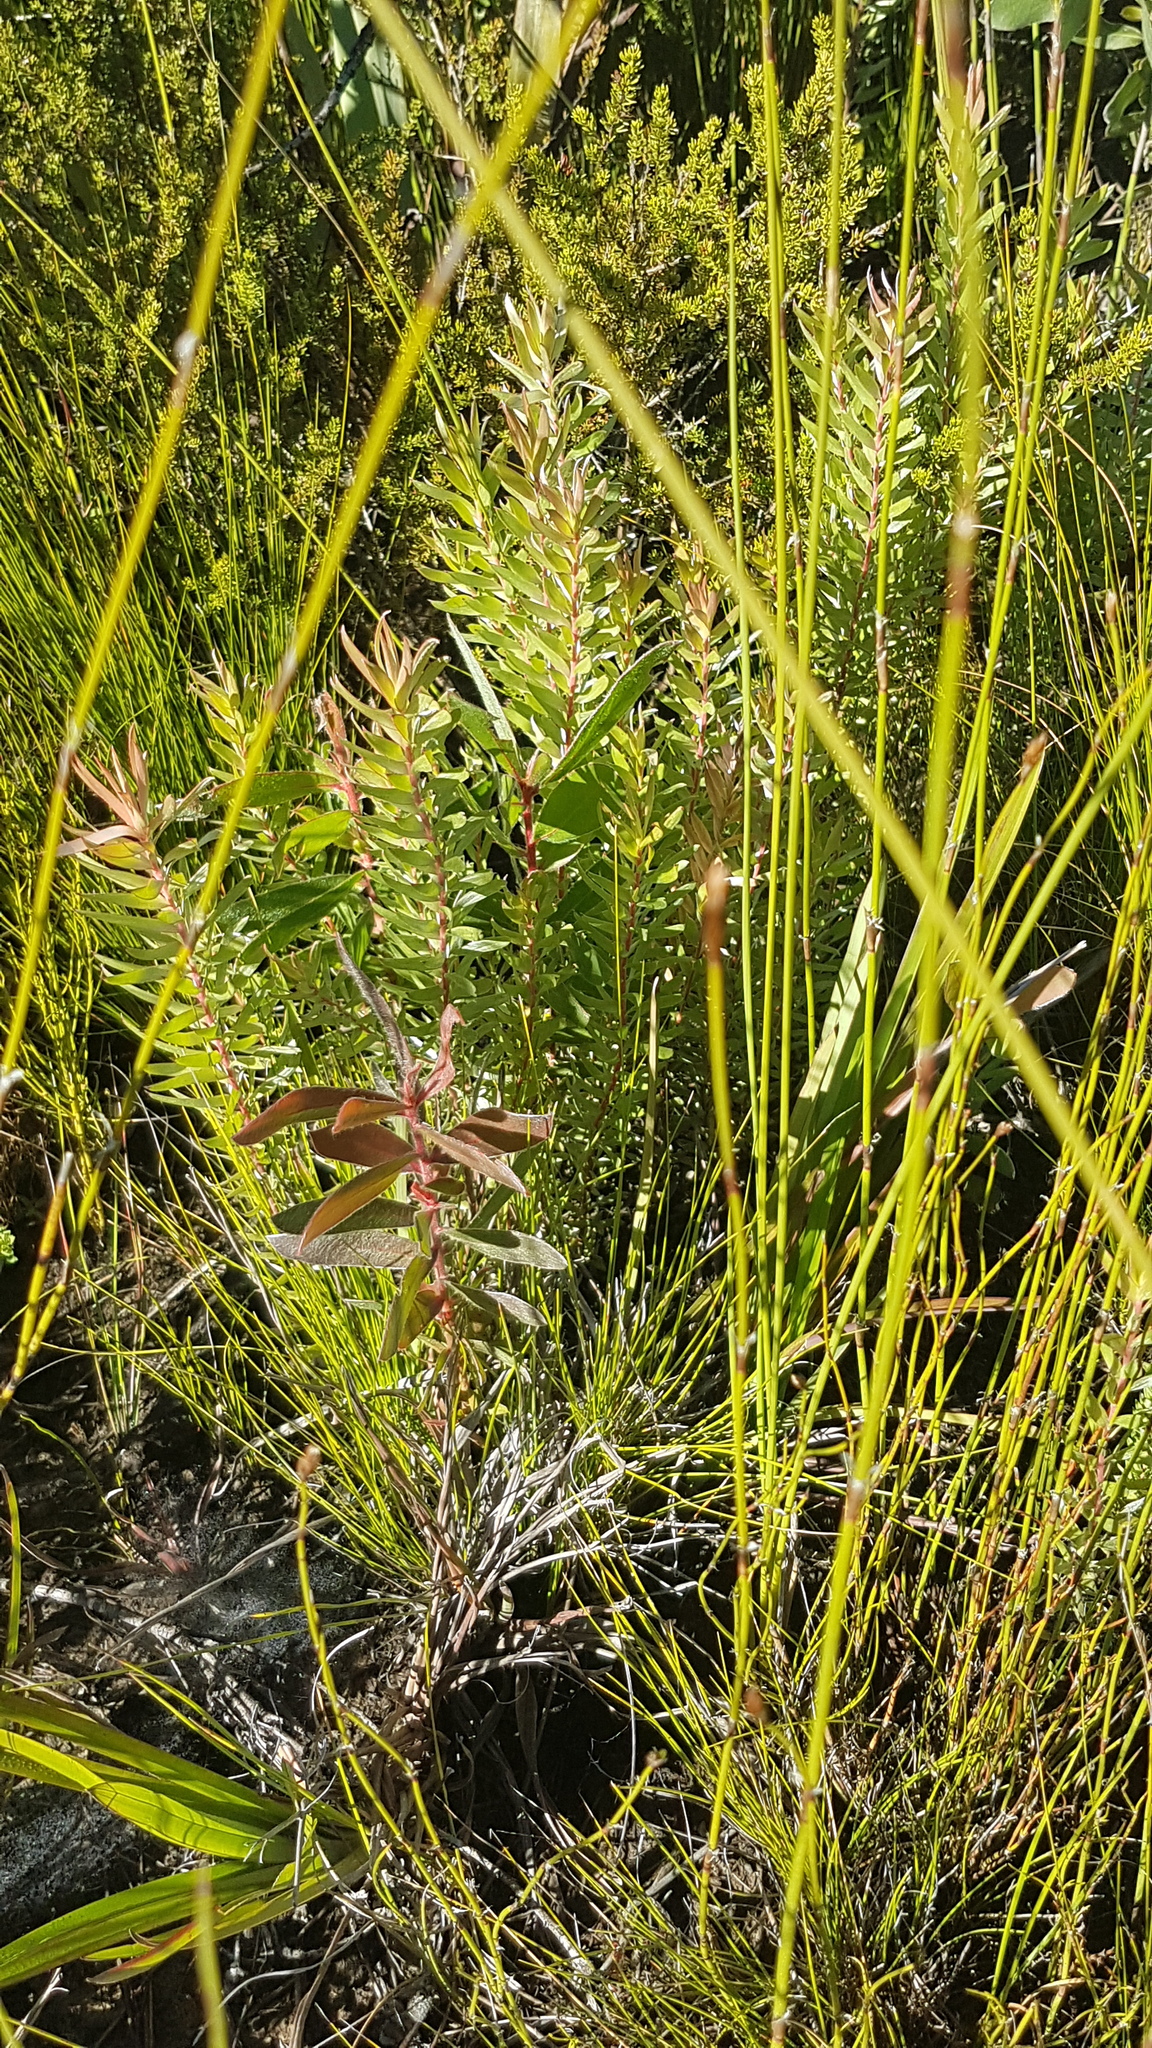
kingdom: Plantae
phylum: Tracheophyta
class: Magnoliopsida
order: Proteales
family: Proteaceae
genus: Leucadendron
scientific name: Leucadendron uliginosum
